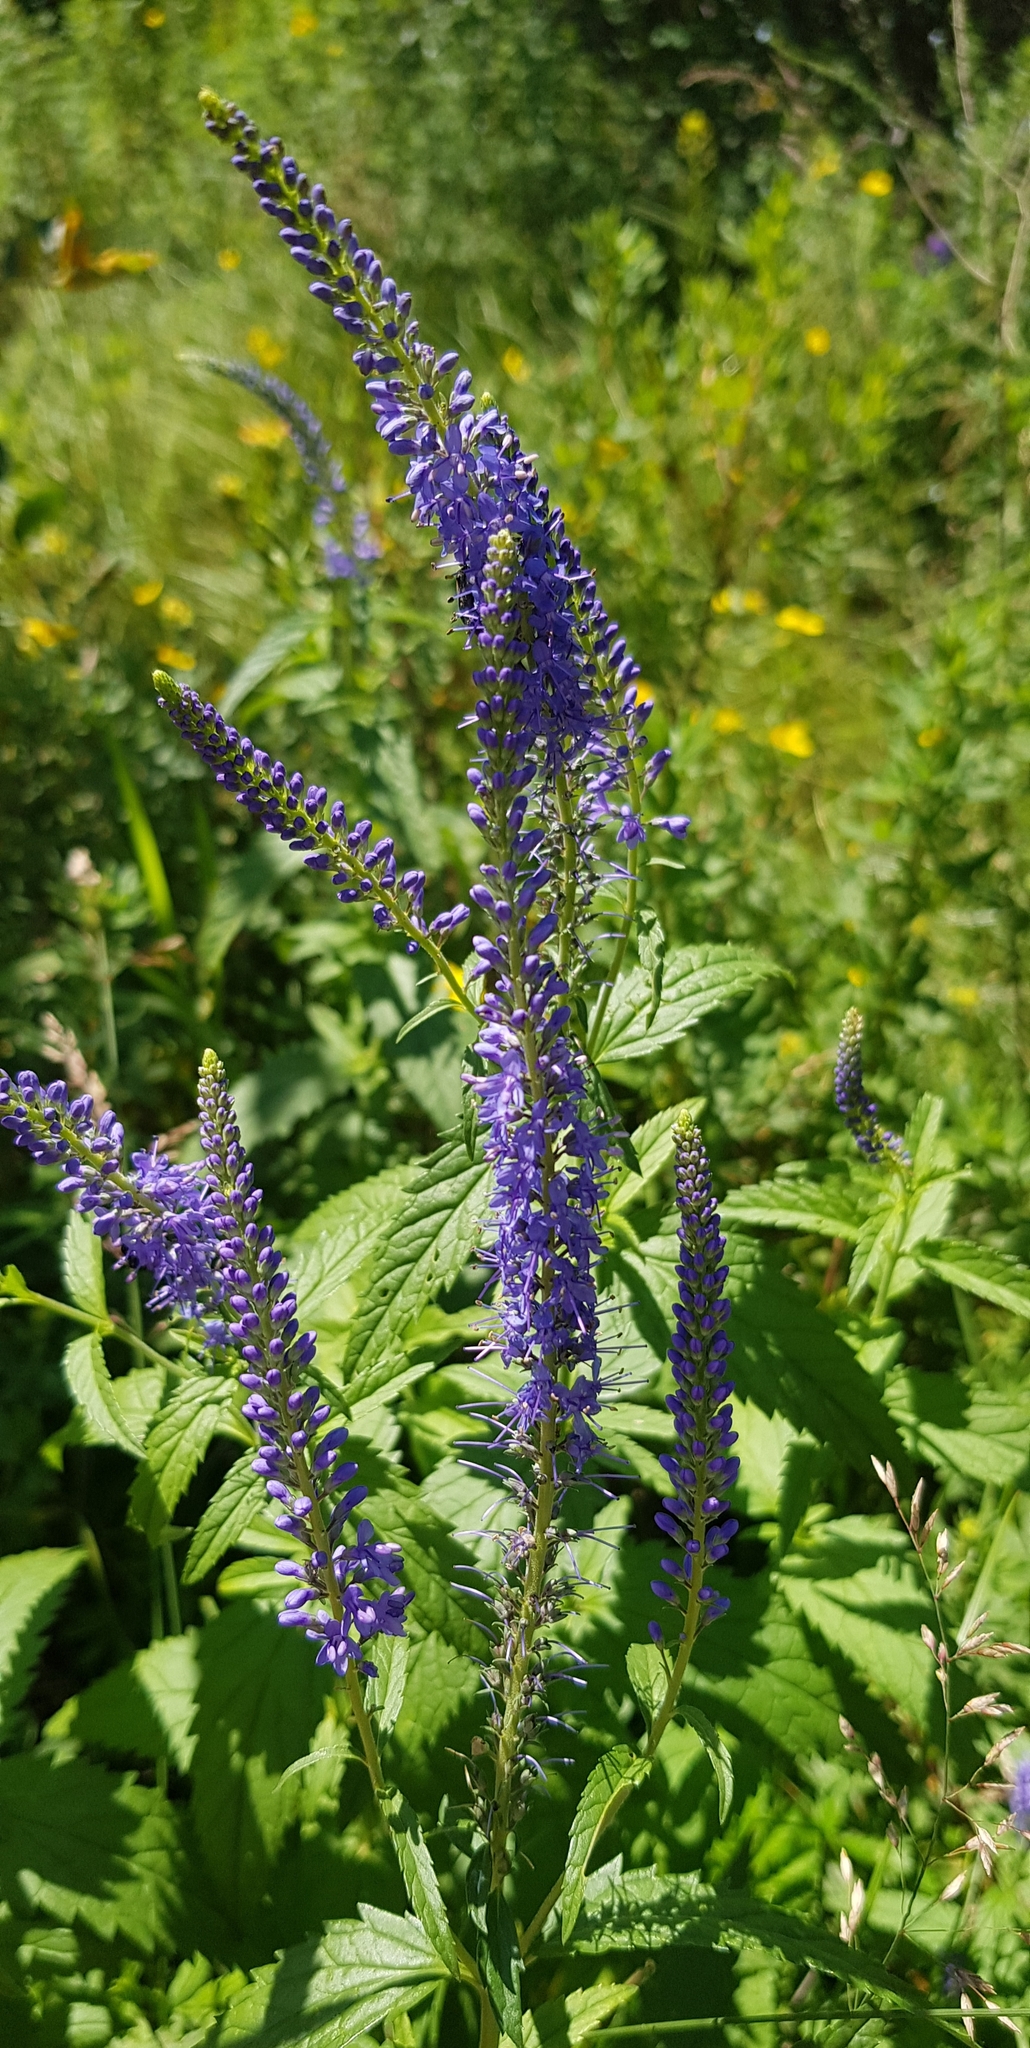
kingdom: Plantae
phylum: Tracheophyta
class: Magnoliopsida
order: Lamiales
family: Plantaginaceae
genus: Veronica
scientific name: Veronica longifolia
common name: Garden speedwell
